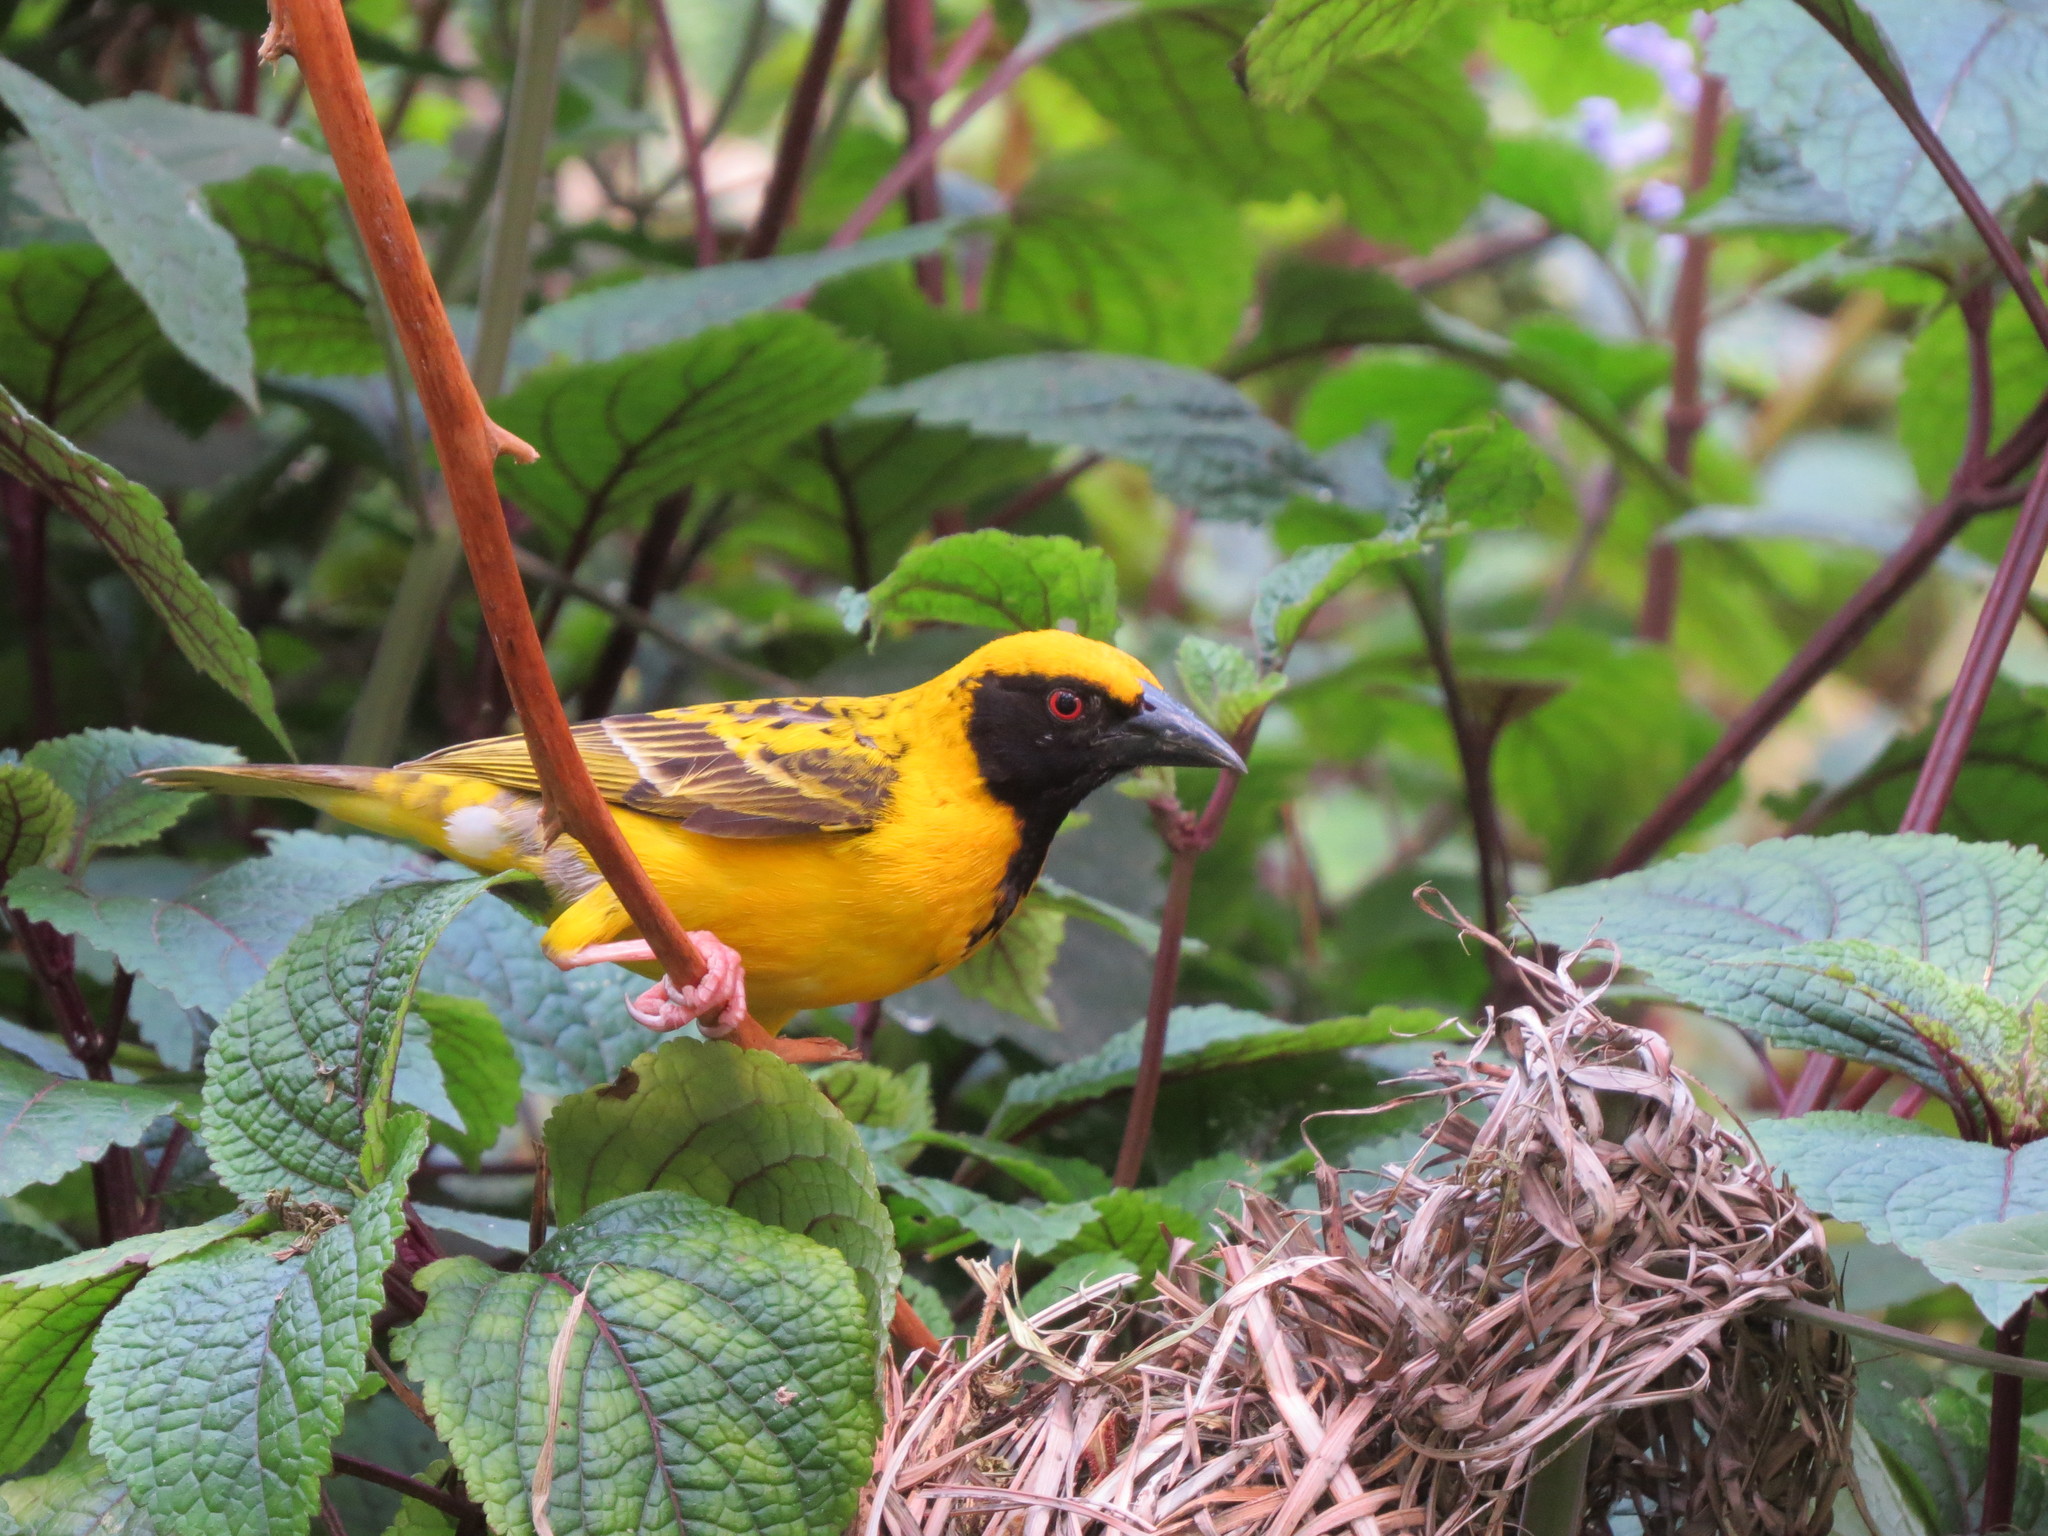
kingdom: Animalia
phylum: Chordata
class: Aves
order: Passeriformes
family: Ploceidae
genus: Ploceus
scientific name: Ploceus cucullatus
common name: Village weaver
